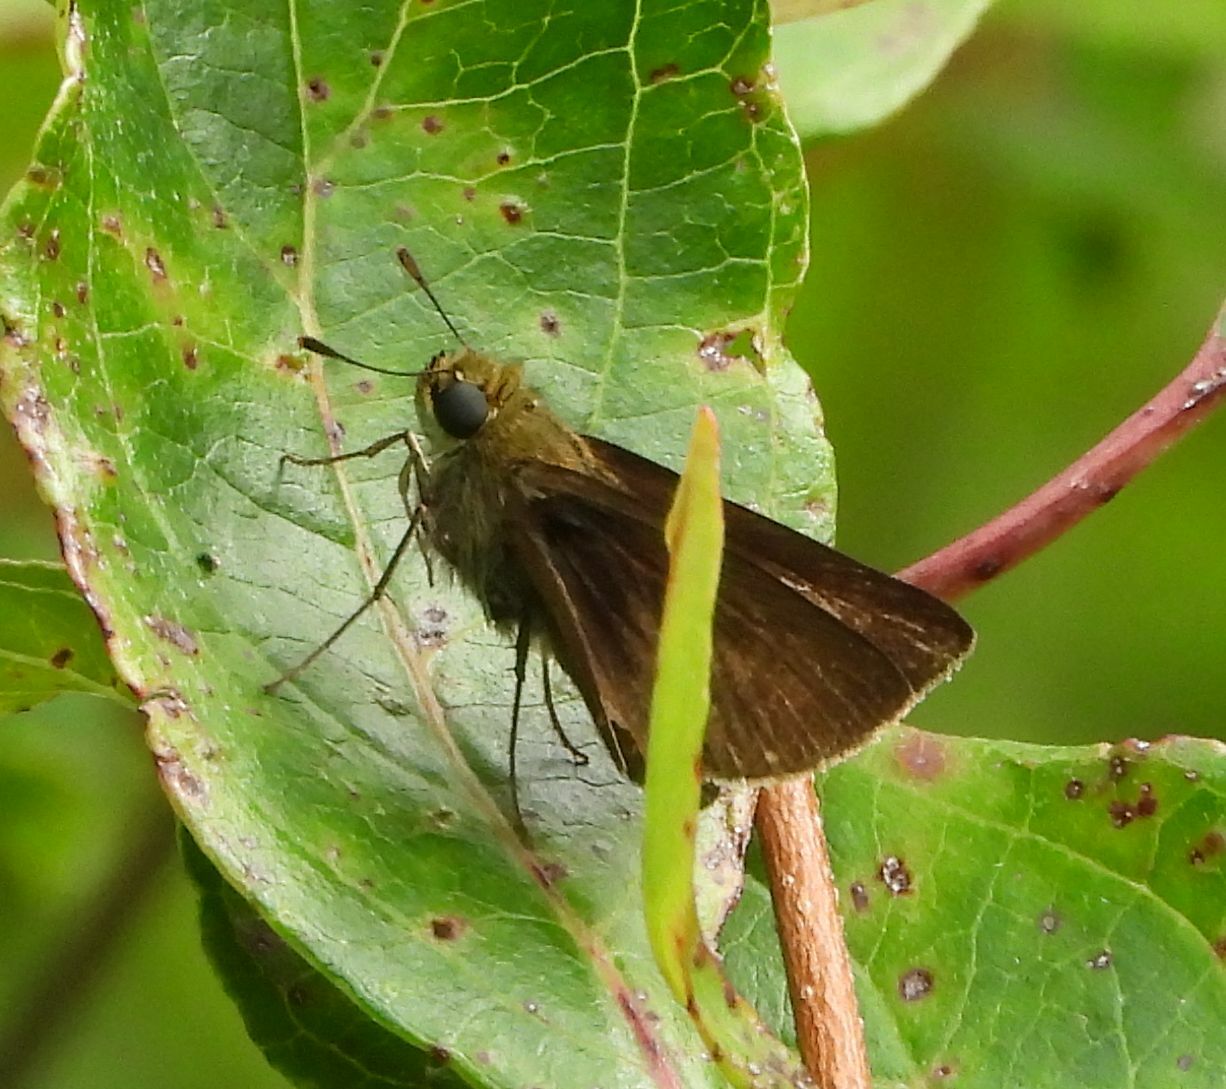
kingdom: Animalia
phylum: Arthropoda
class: Insecta
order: Lepidoptera
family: Hesperiidae
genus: Euphyes
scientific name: Euphyes vestris
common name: Dun skipper
